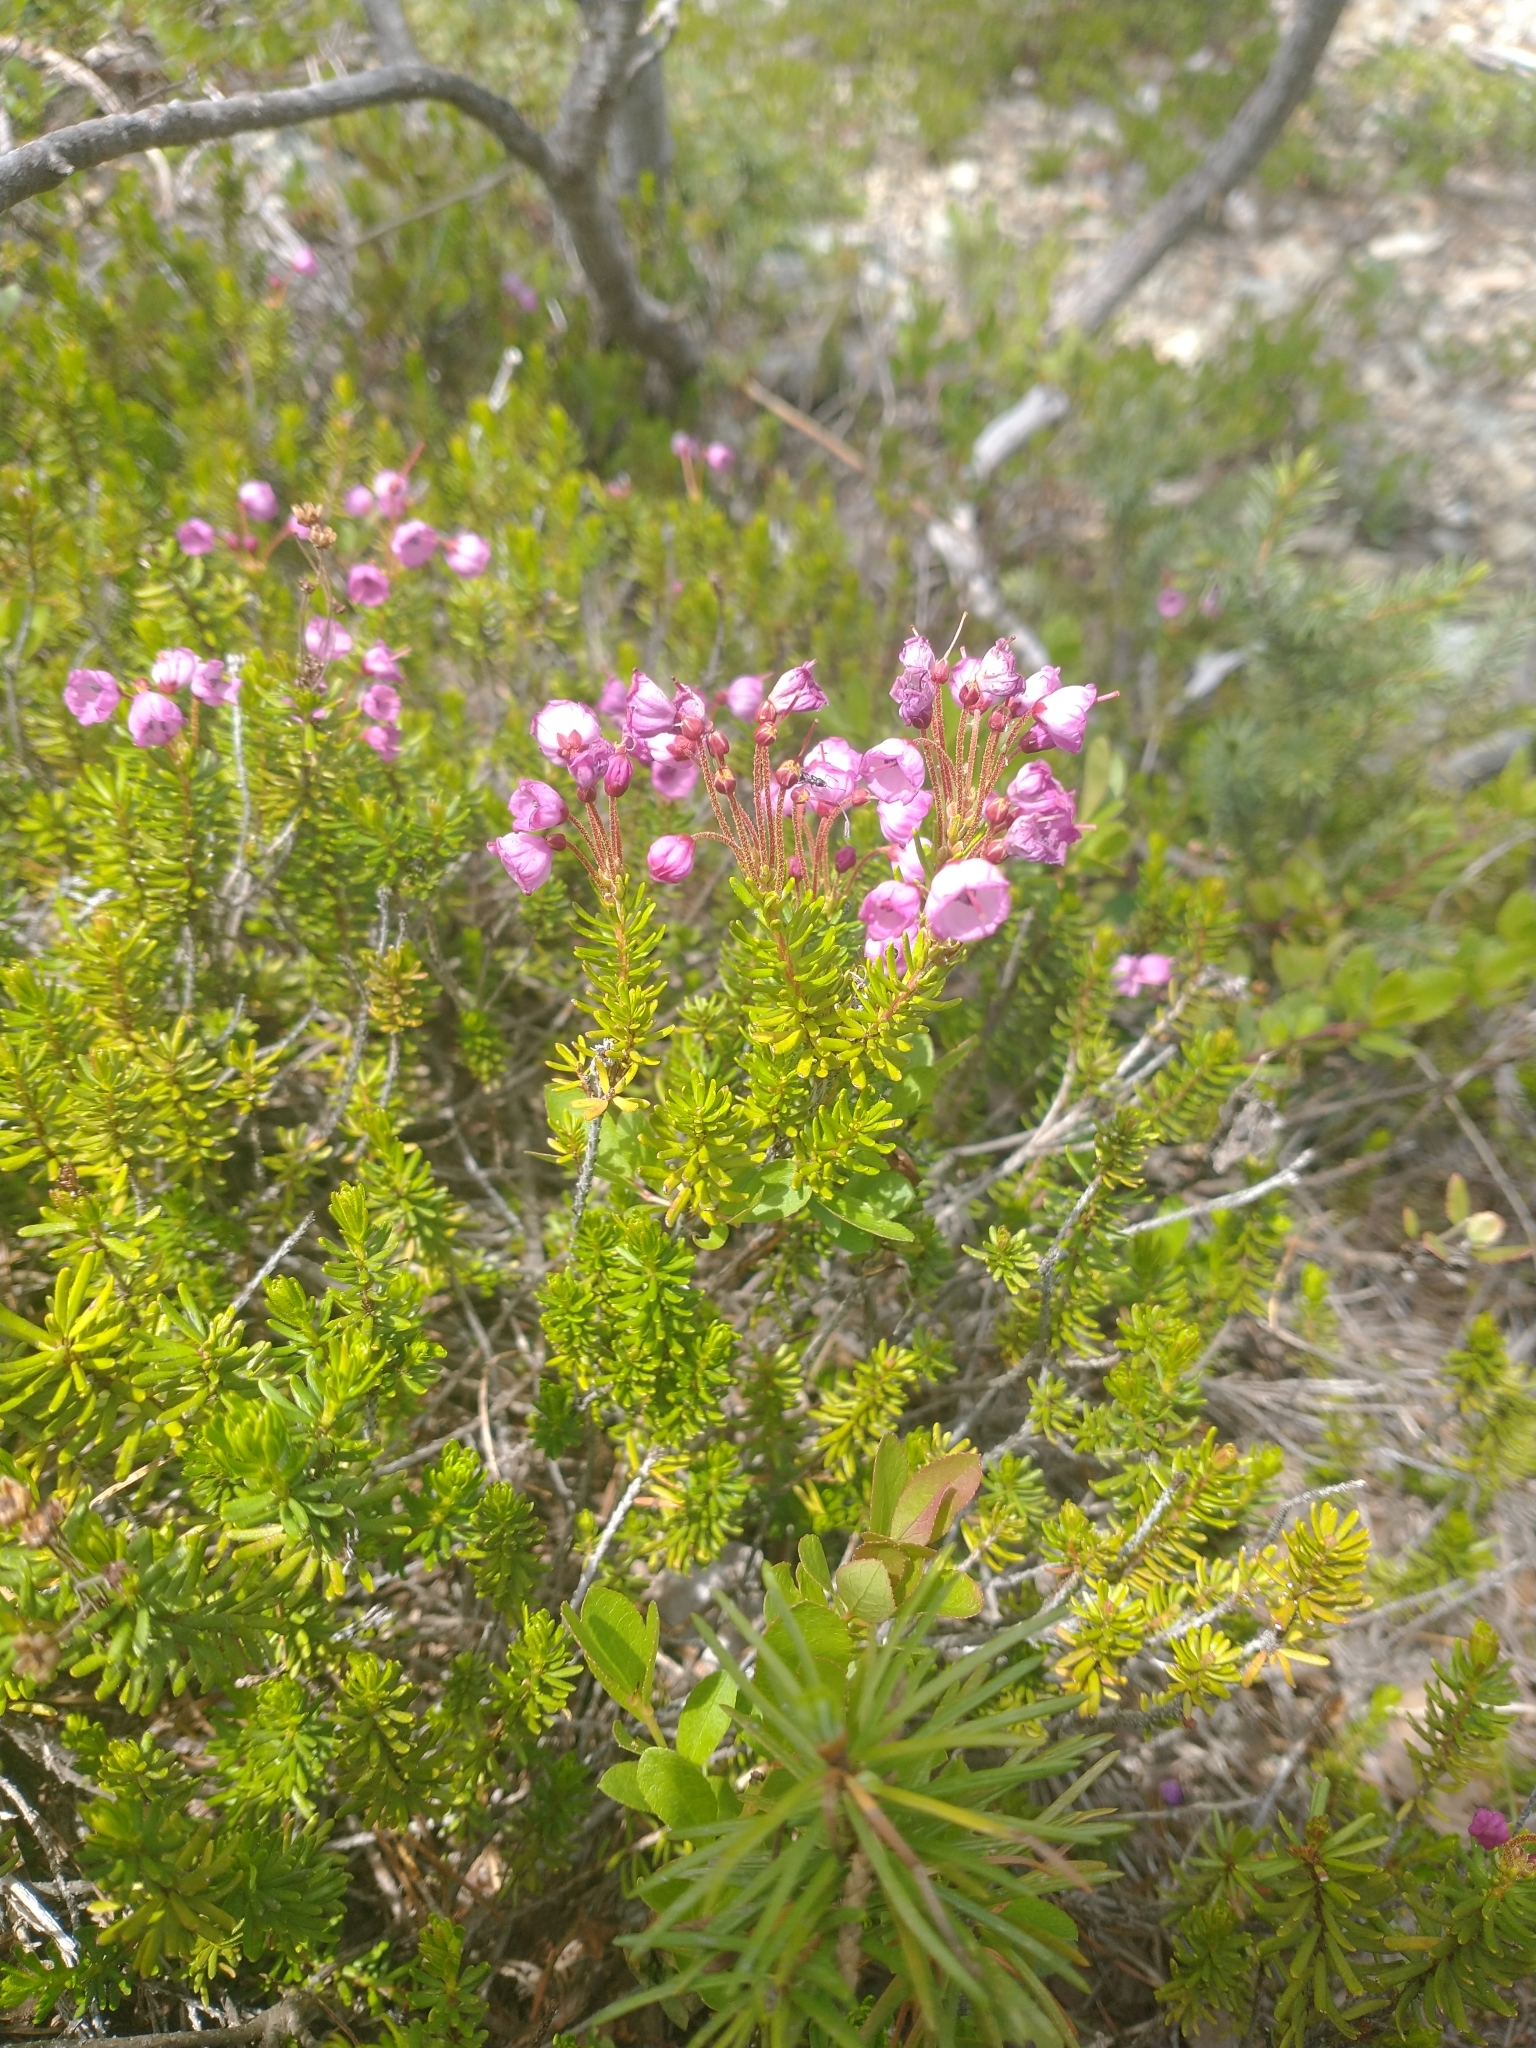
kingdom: Plantae
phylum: Tracheophyta
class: Magnoliopsida
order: Ericales
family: Ericaceae
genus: Phyllodoce
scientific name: Phyllodoce empetriformis
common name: Pink mountain heather
